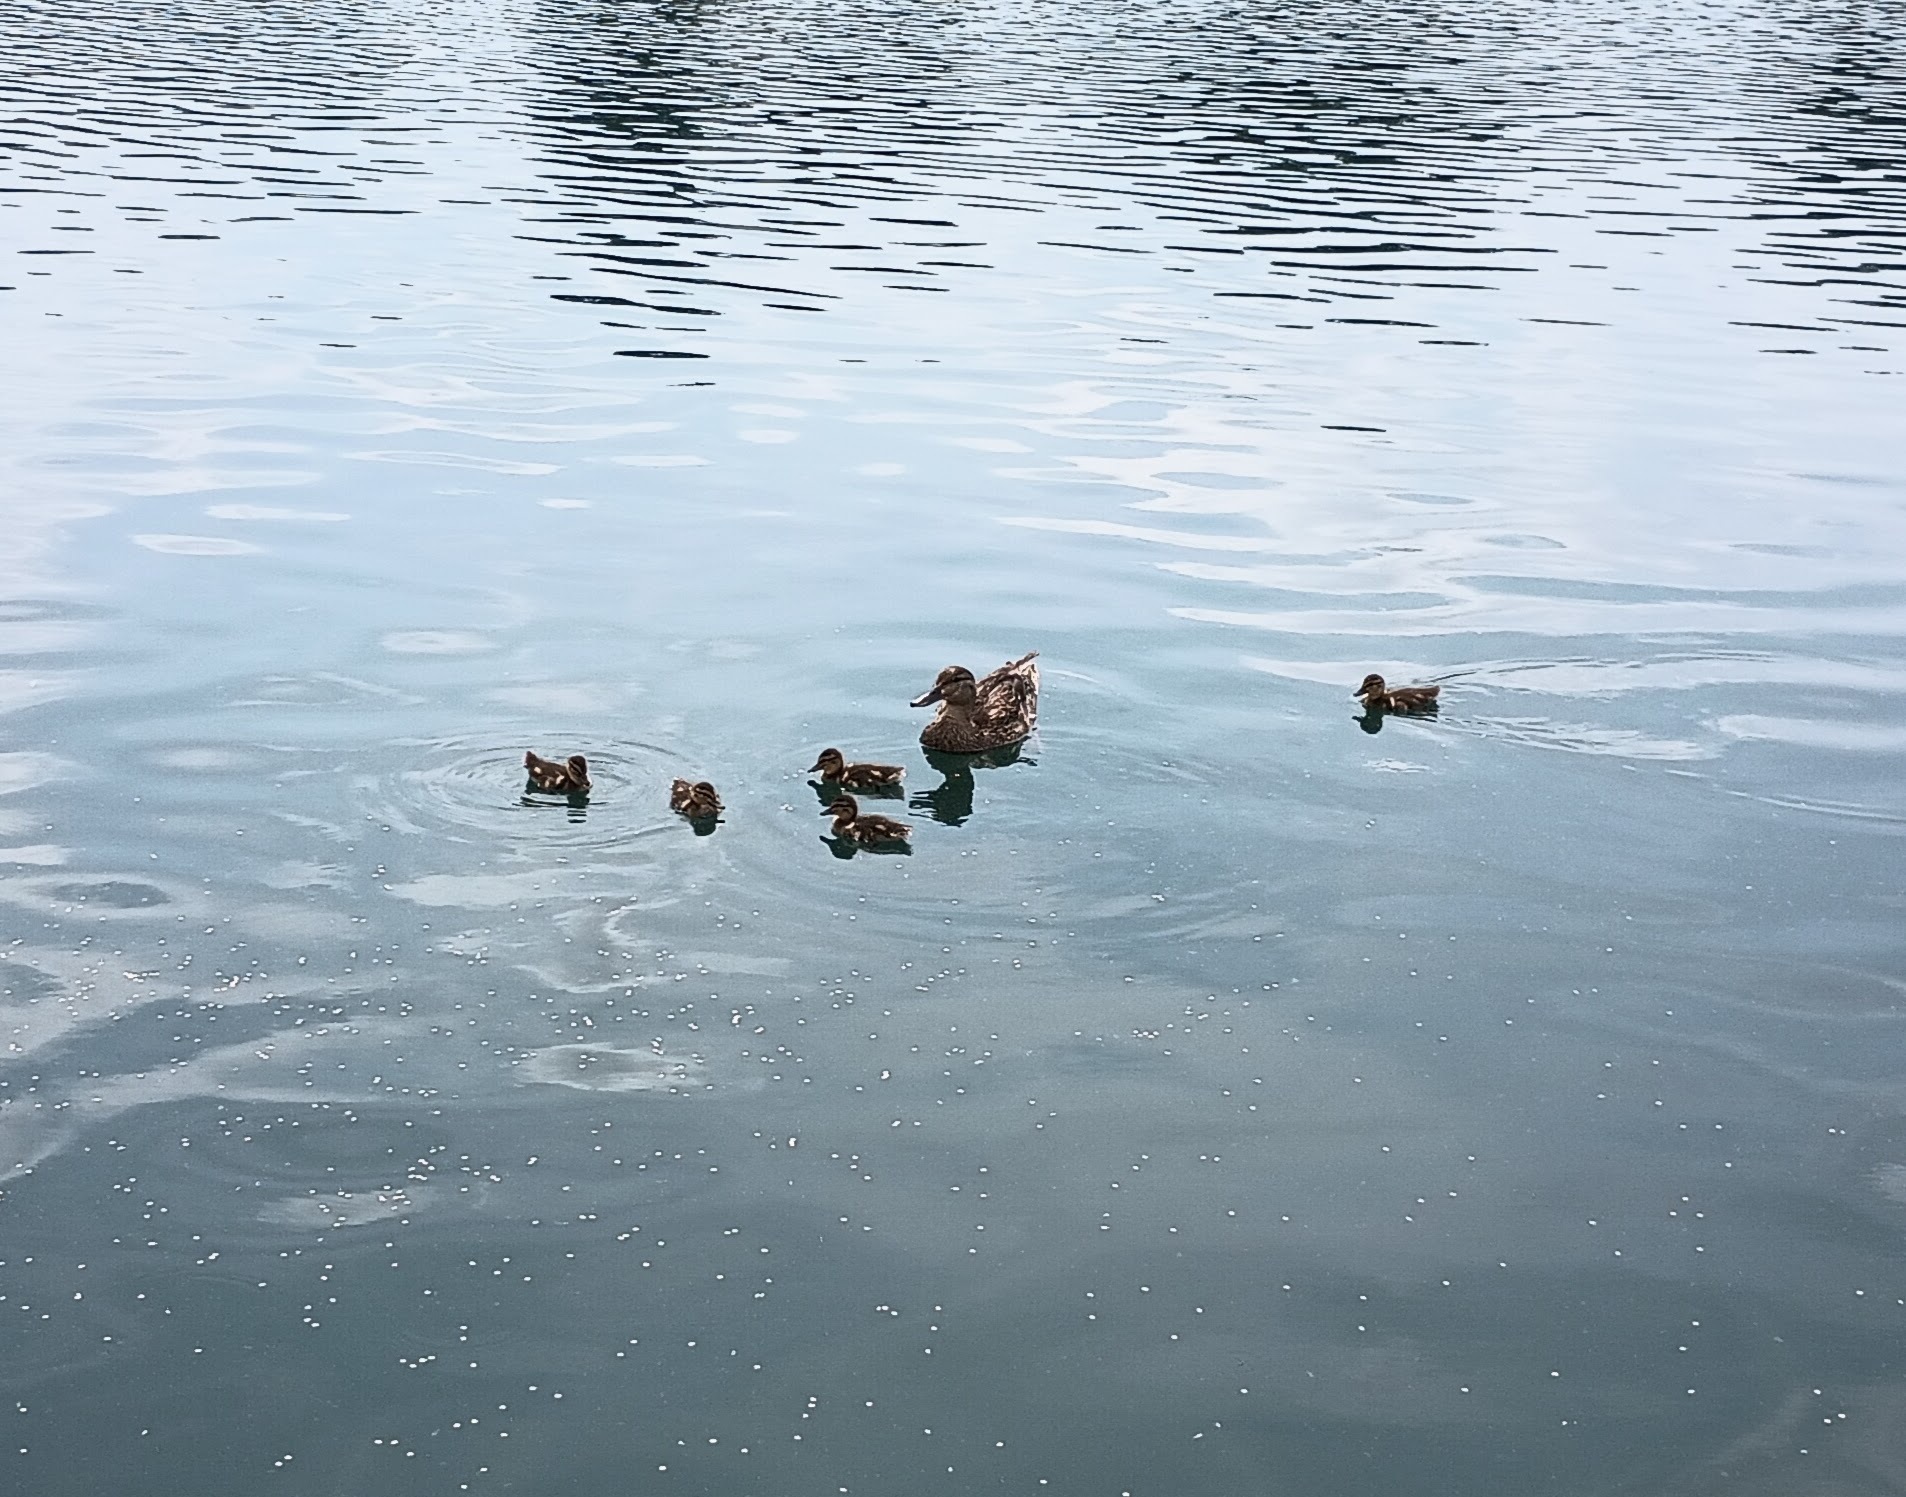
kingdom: Animalia
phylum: Chordata
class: Aves
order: Anseriformes
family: Anatidae
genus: Anas
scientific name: Anas platyrhynchos
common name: Mallard
